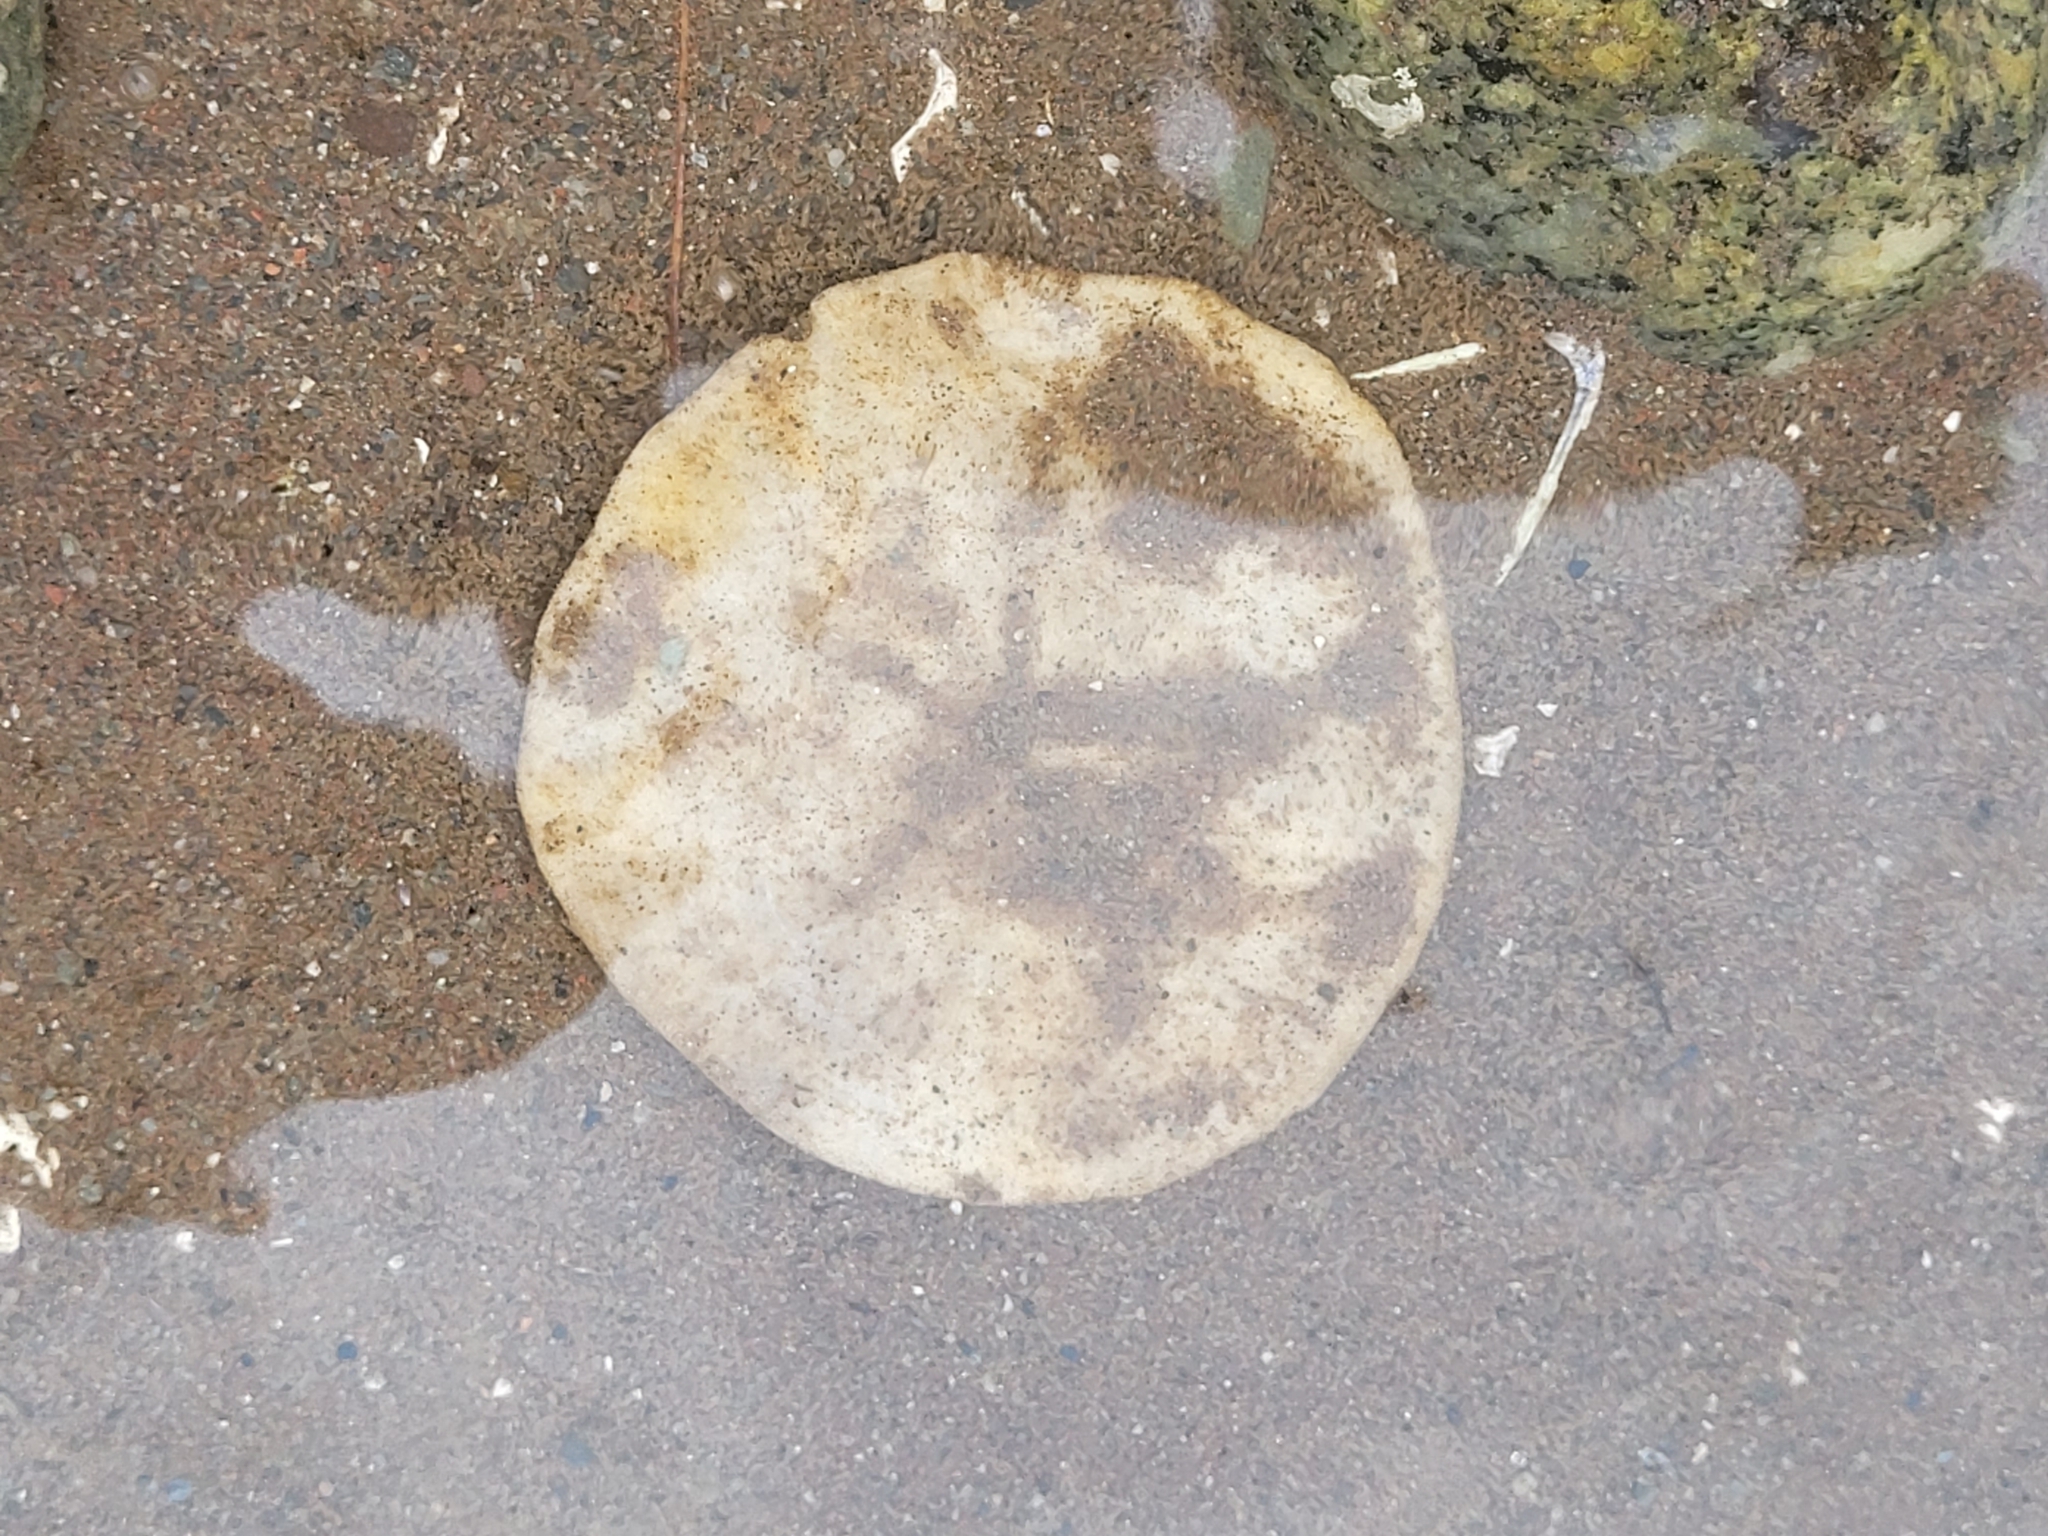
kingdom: Animalia
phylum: Echinodermata
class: Echinoidea
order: Echinolampadacea
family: Echinarachniidae
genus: Echinarachnius
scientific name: Echinarachnius parma
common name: Common sand dollar
